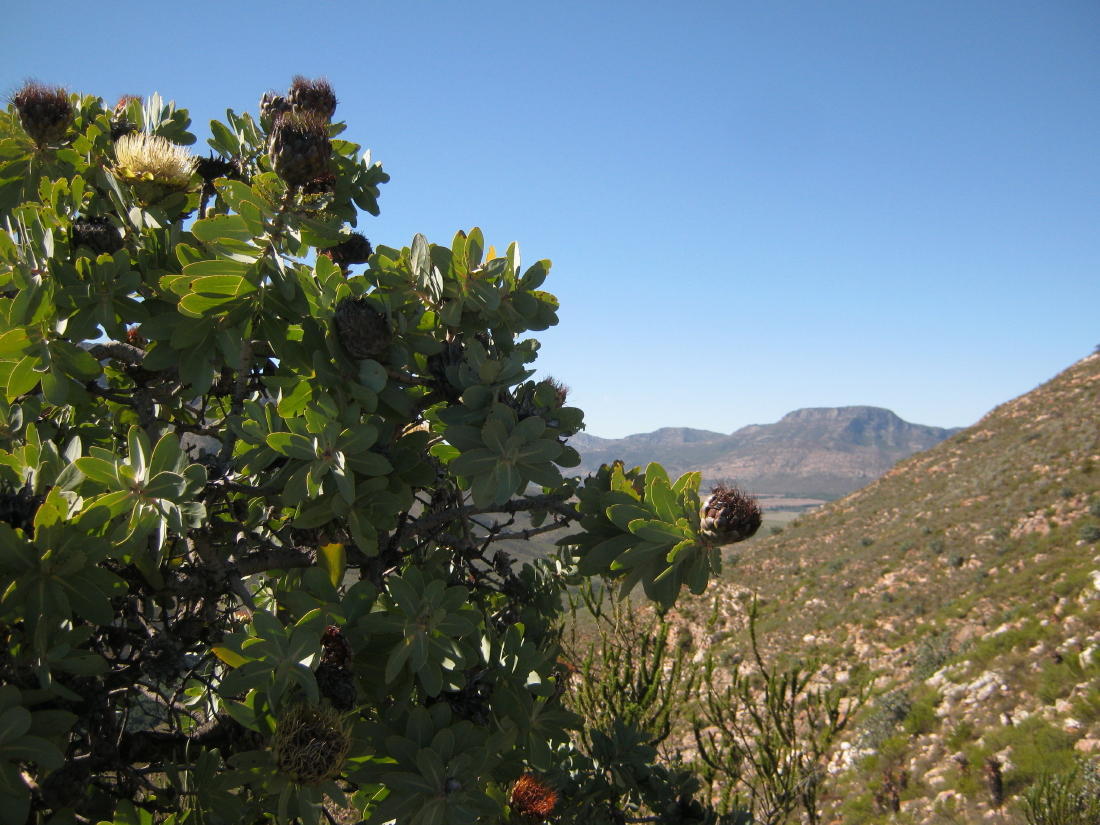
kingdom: Plantae
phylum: Tracheophyta
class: Magnoliopsida
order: Proteales
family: Proteaceae
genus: Protea
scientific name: Protea nitida
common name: Tree protea
